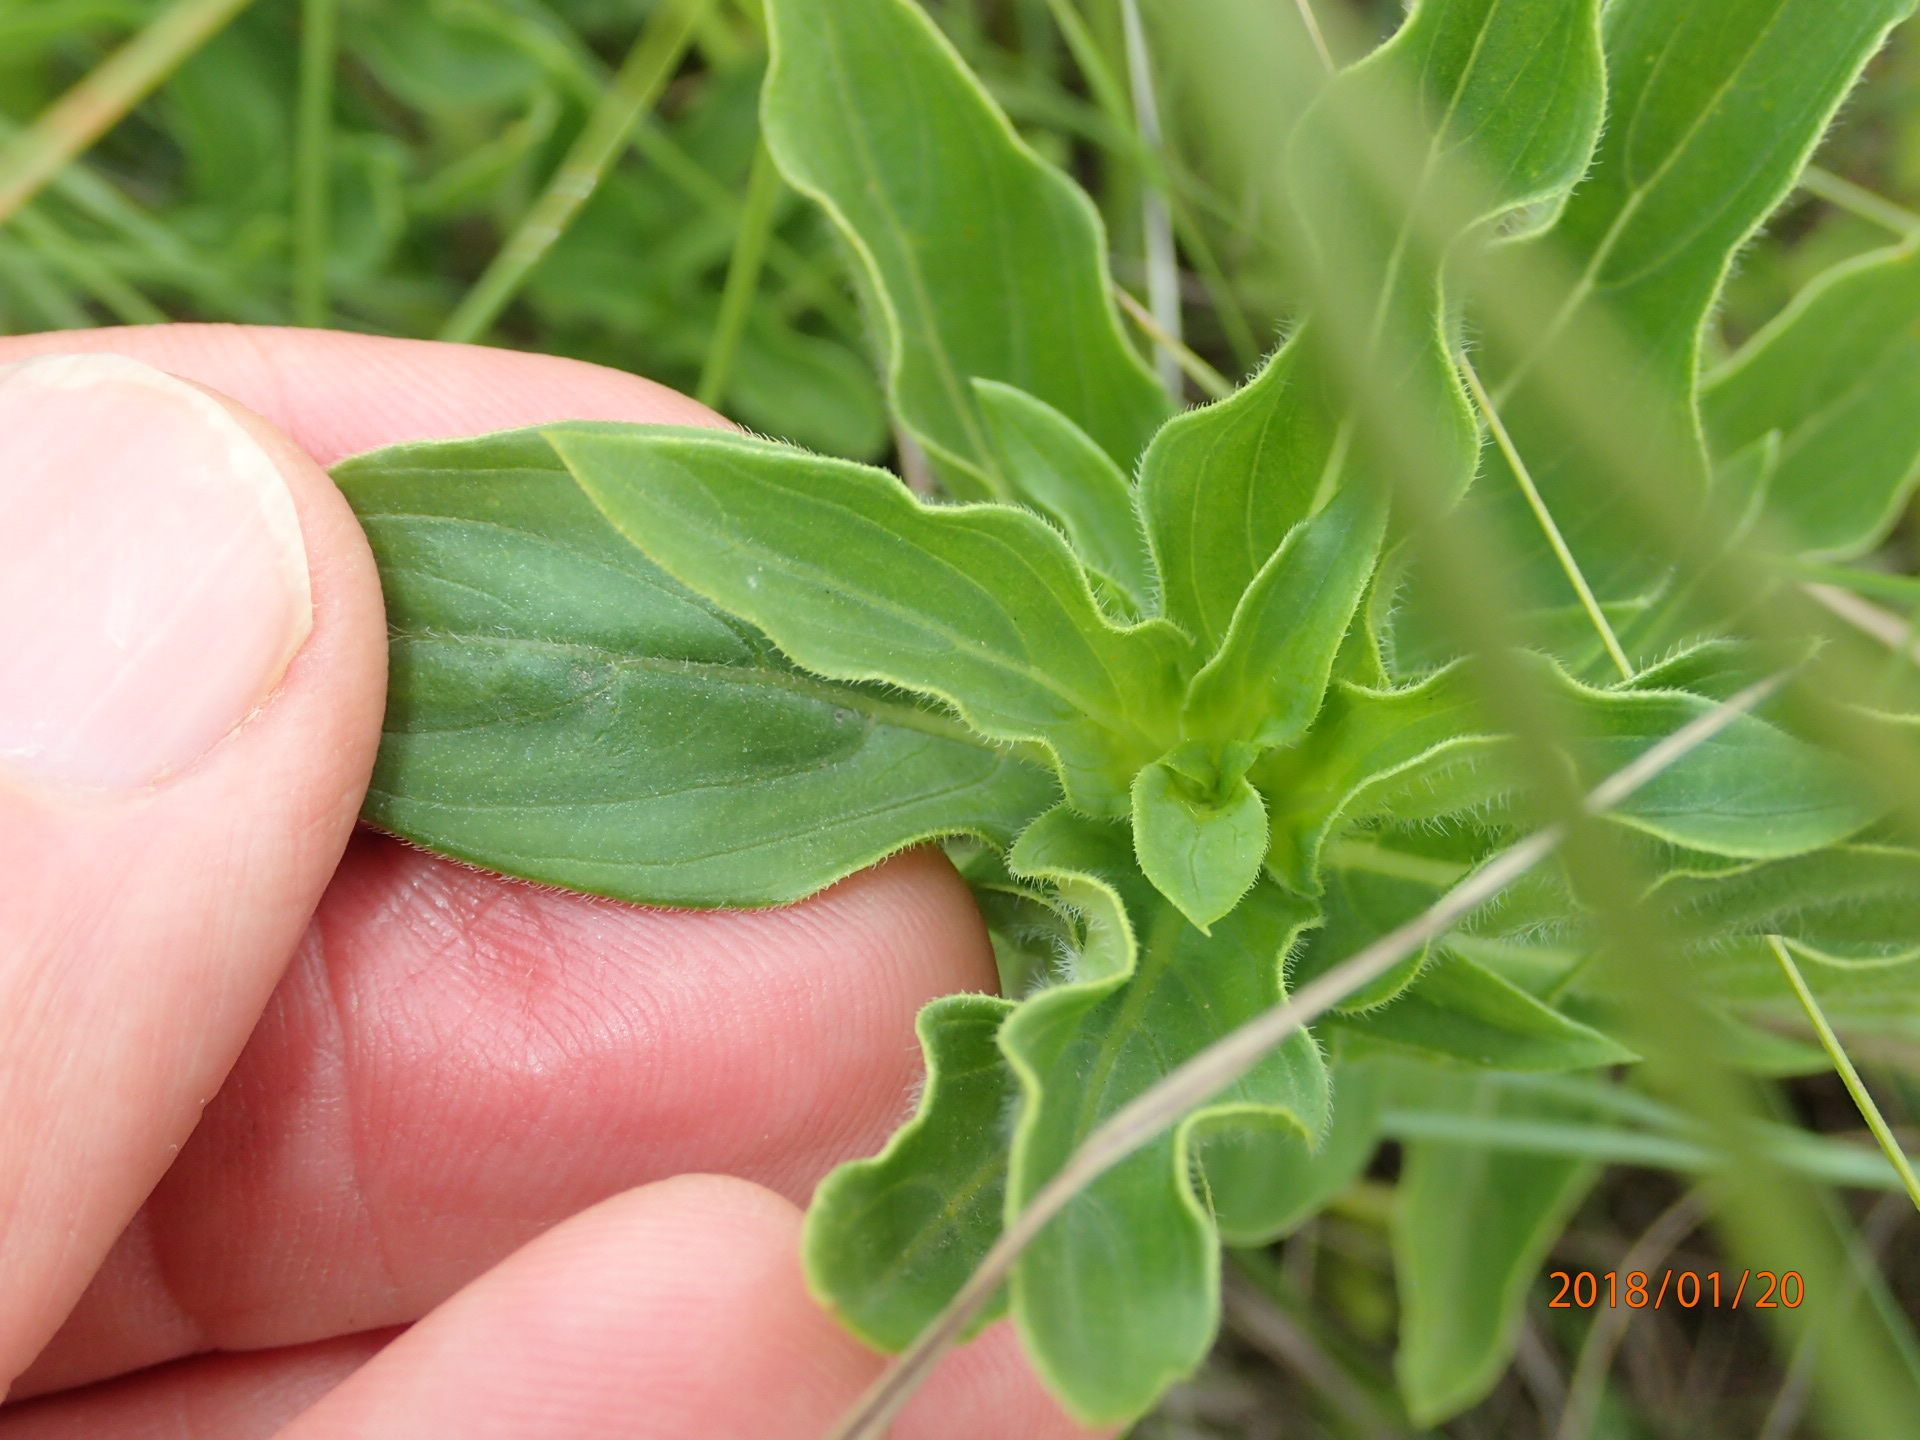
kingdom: Plantae
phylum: Tracheophyta
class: Magnoliopsida
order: Gentianales
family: Rubiaceae
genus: Pentanisia
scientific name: Pentanisia angustifolia
